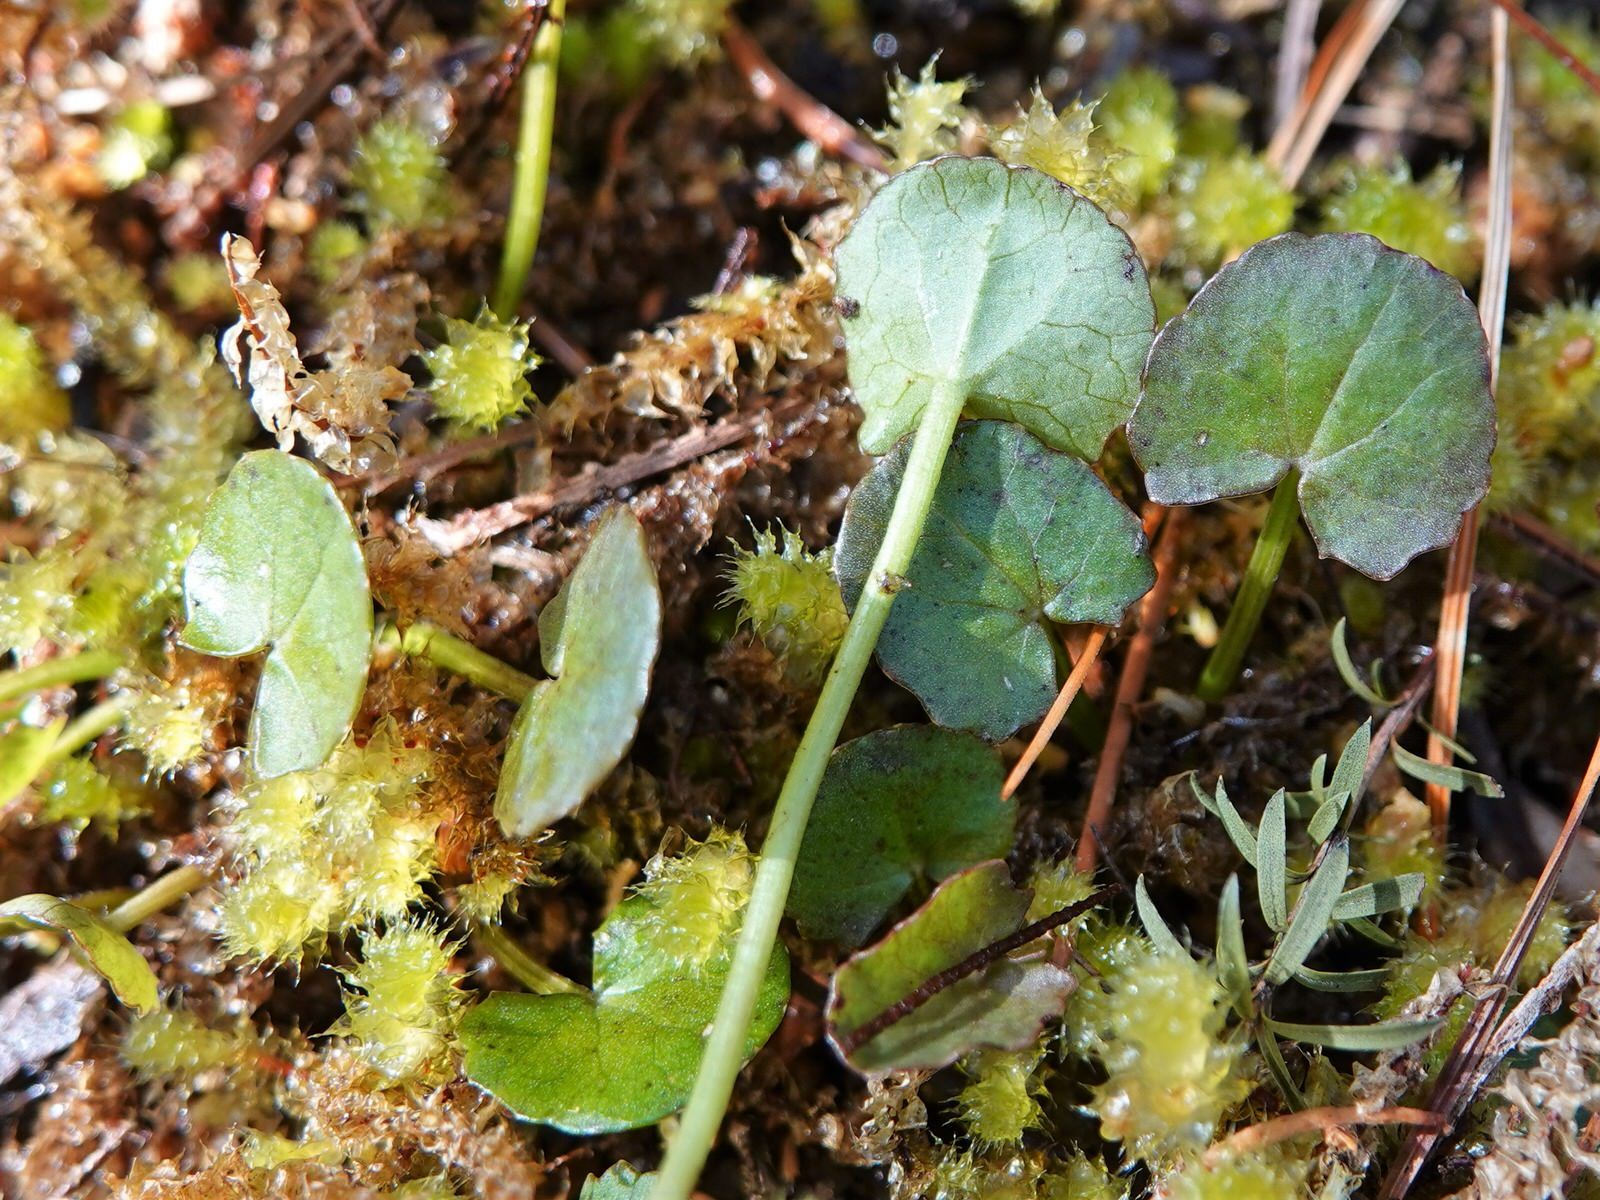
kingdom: Plantae
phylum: Tracheophyta
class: Magnoliopsida
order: Apiales
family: Apiaceae
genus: Centella
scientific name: Centella uniflora
